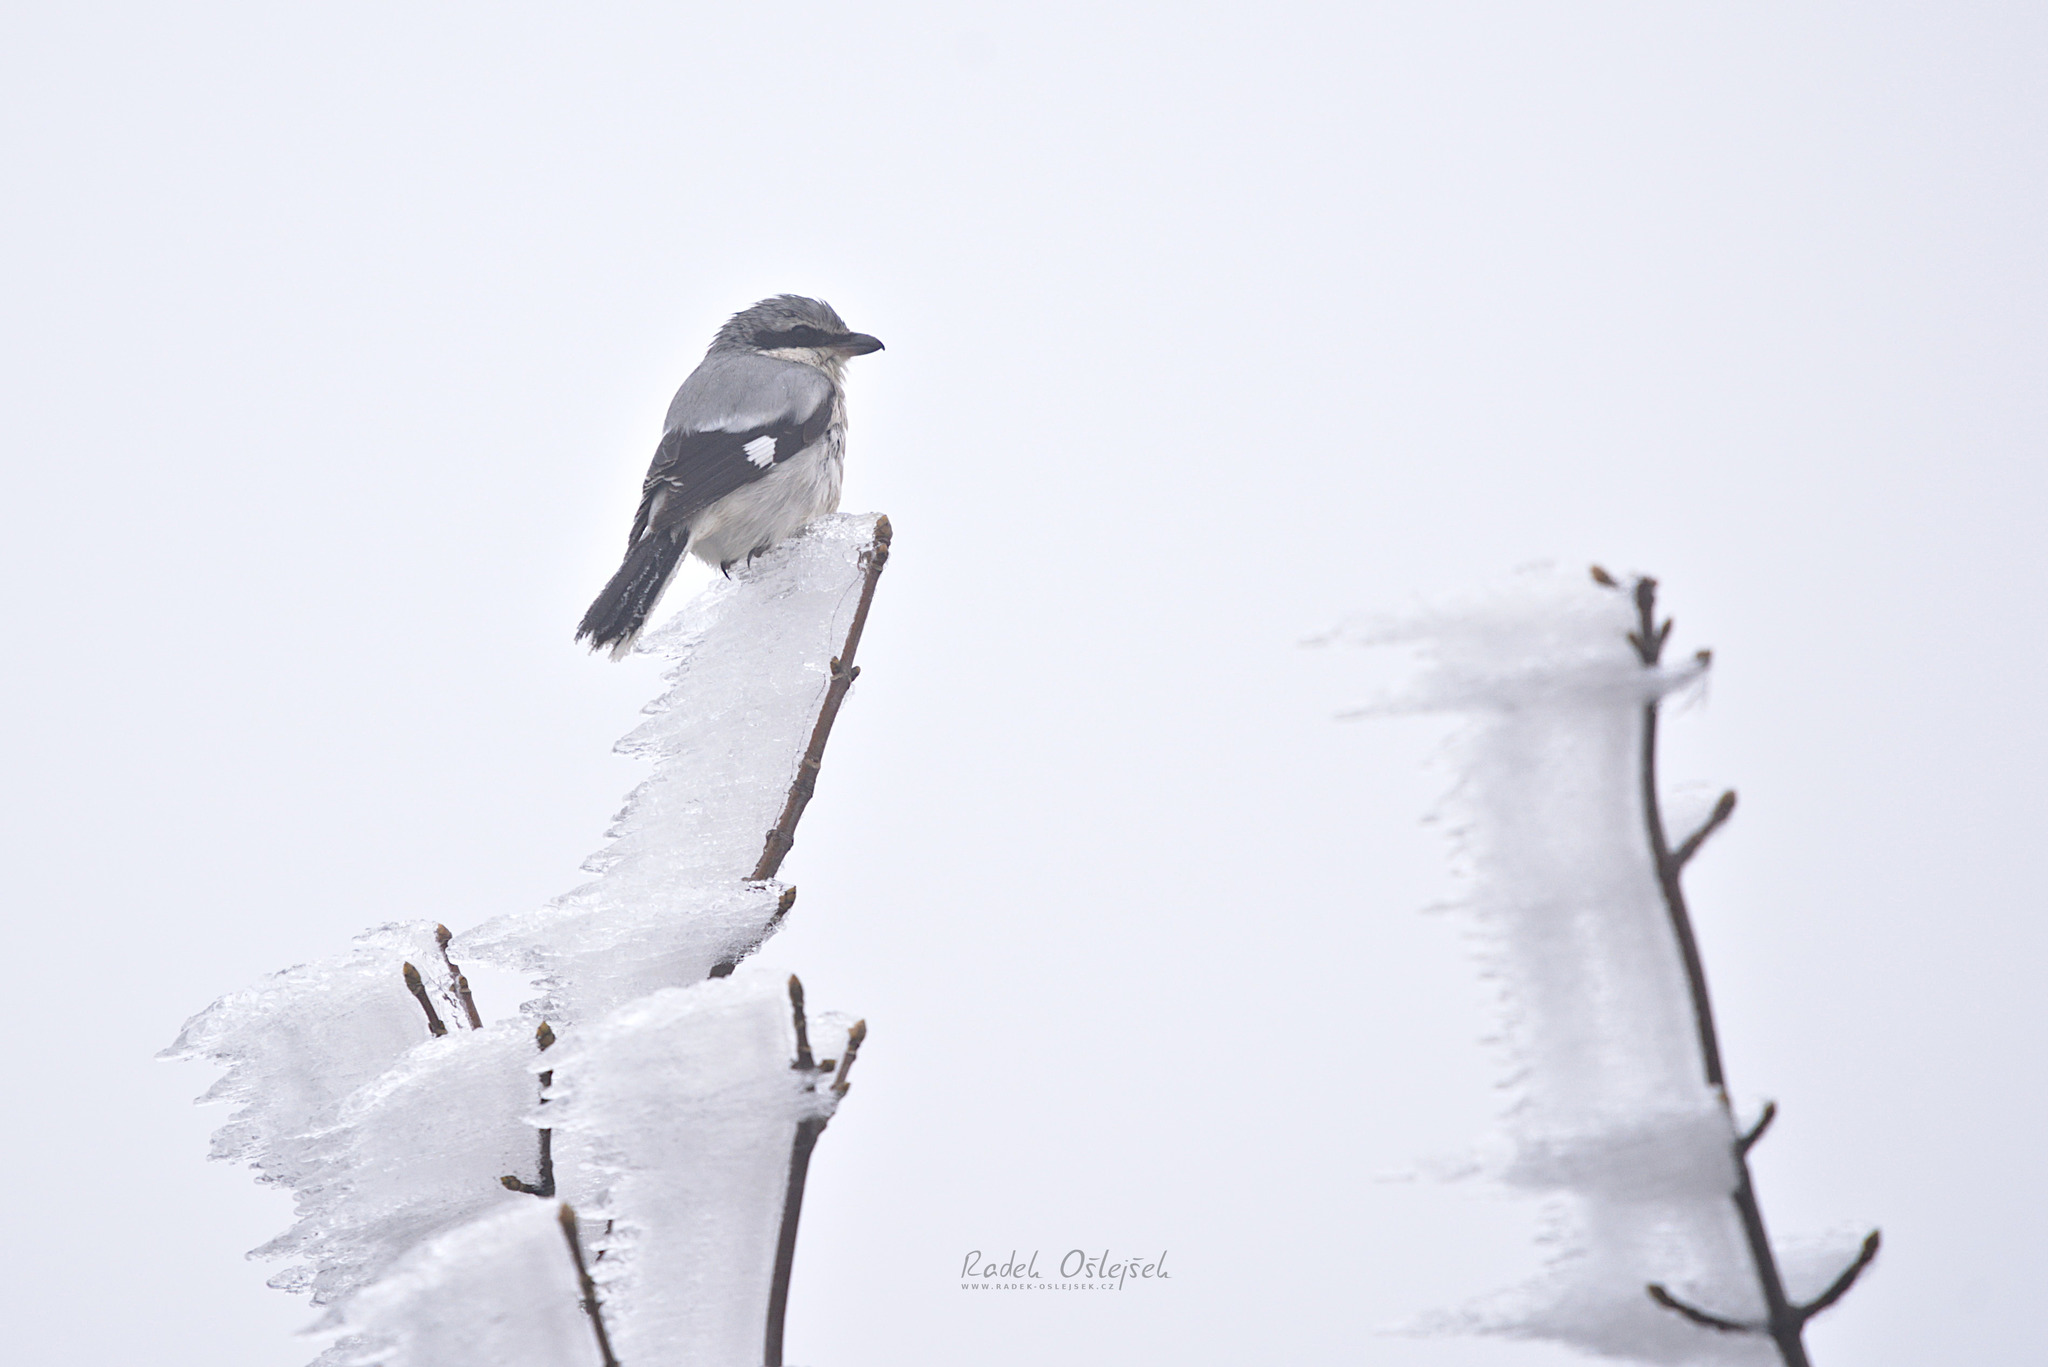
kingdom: Animalia
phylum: Chordata
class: Aves
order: Passeriformes
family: Laniidae
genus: Lanius
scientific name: Lanius excubitor
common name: Great grey shrike
